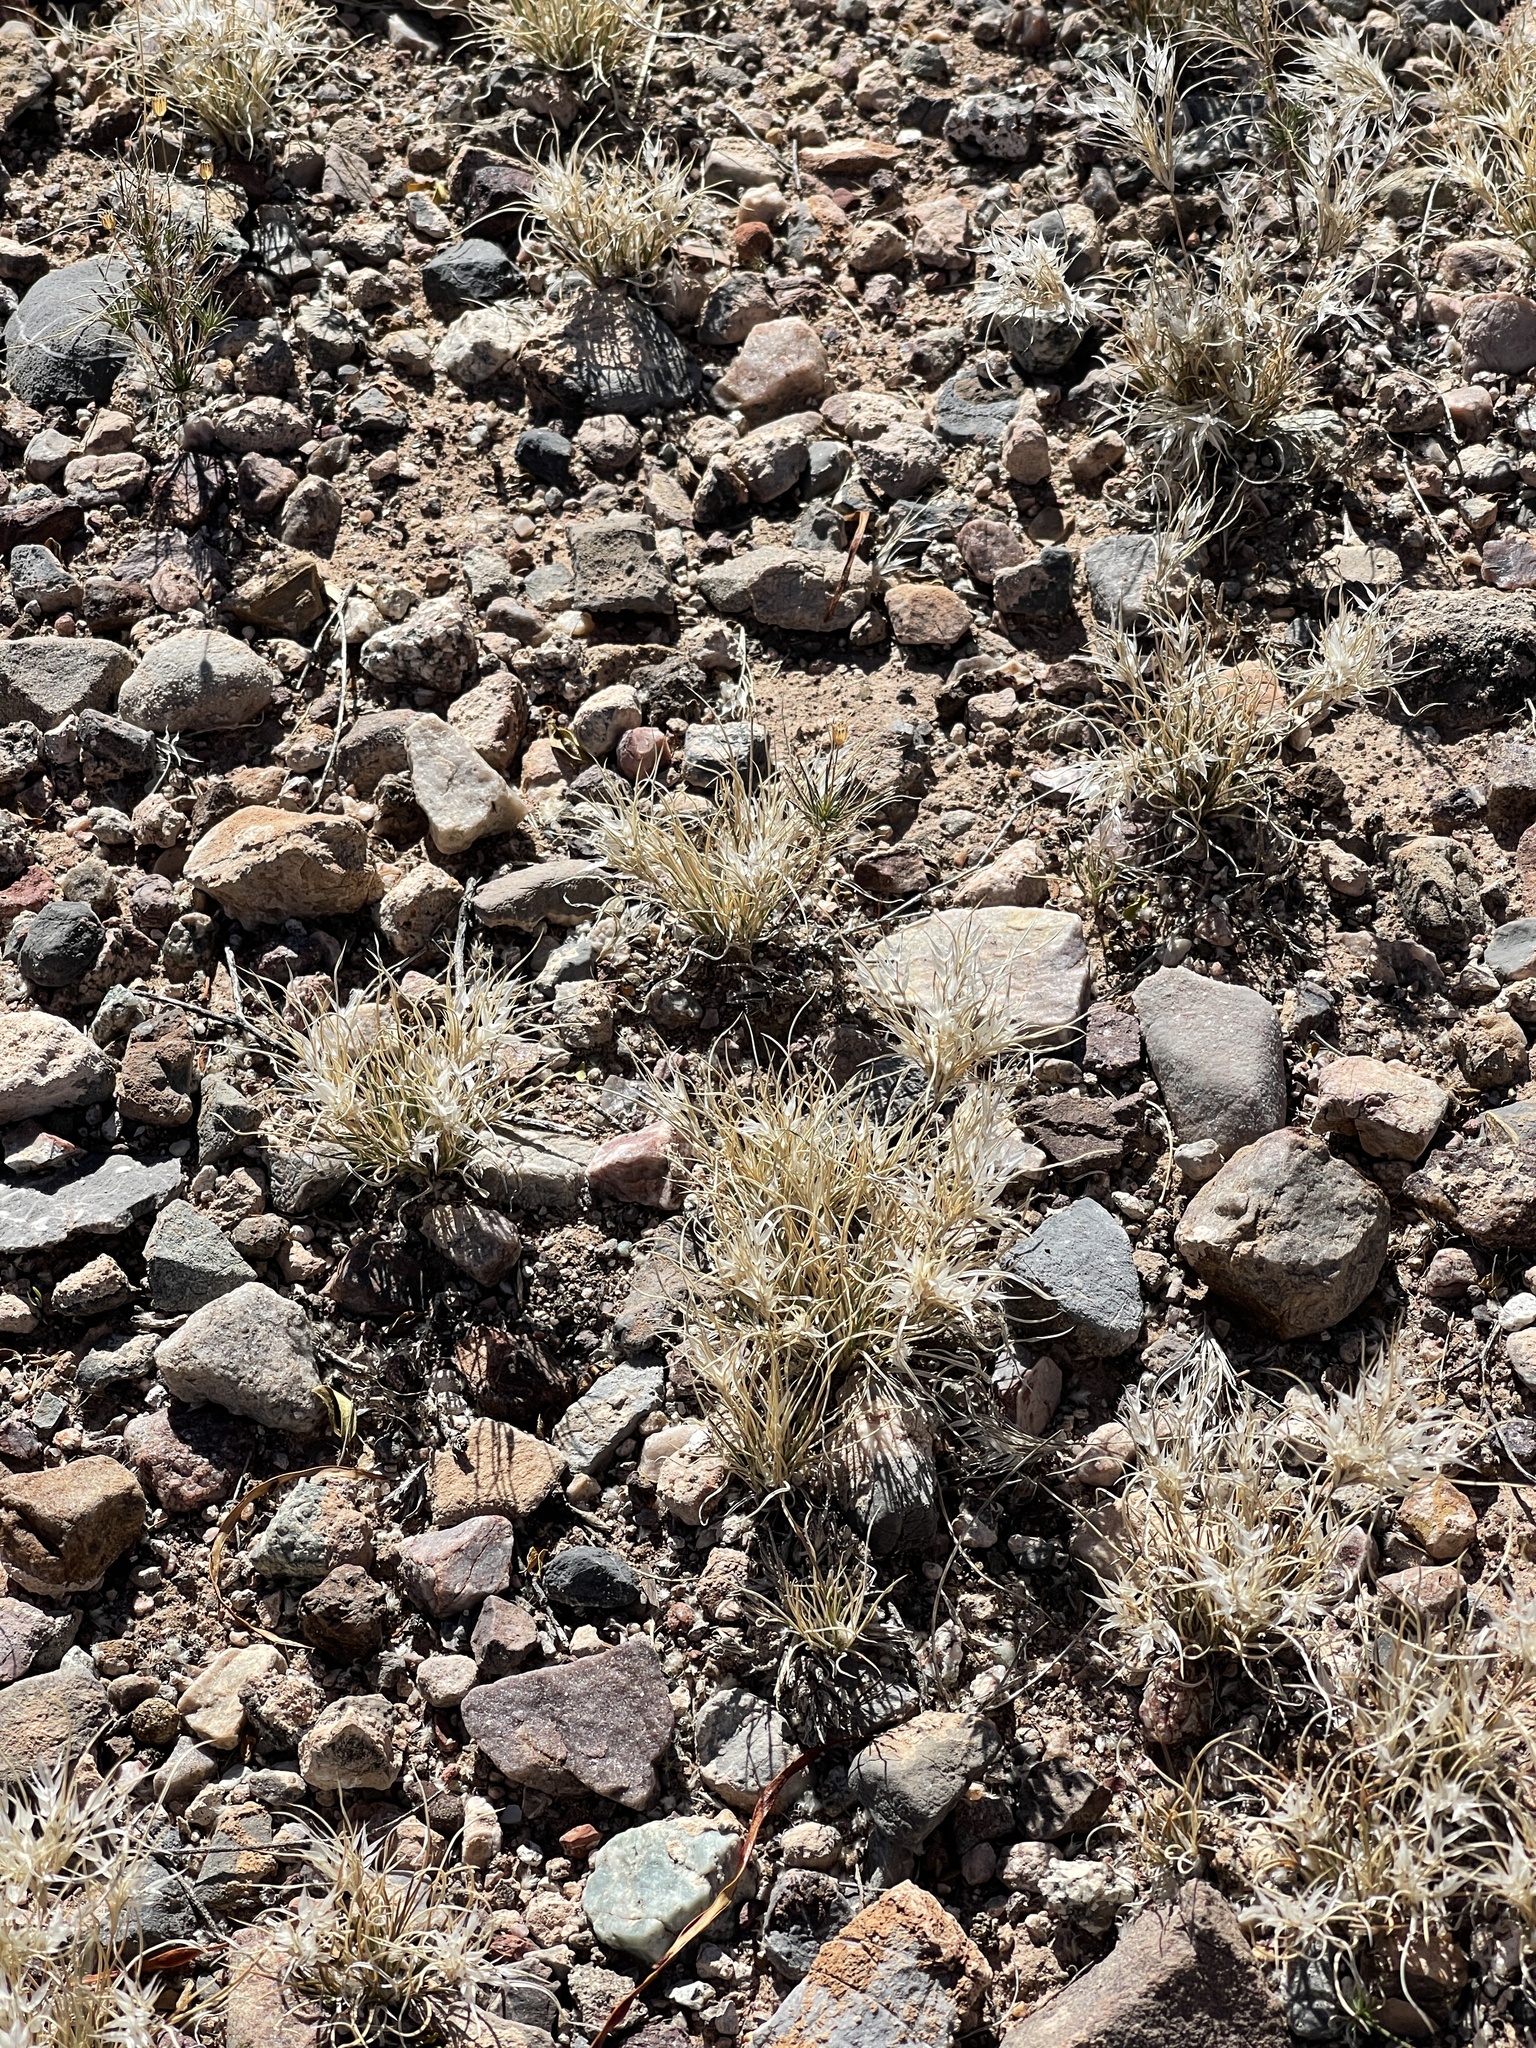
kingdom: Plantae
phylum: Tracheophyta
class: Liliopsida
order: Poales
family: Poaceae
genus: Dasyochloa
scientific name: Dasyochloa pulchella
